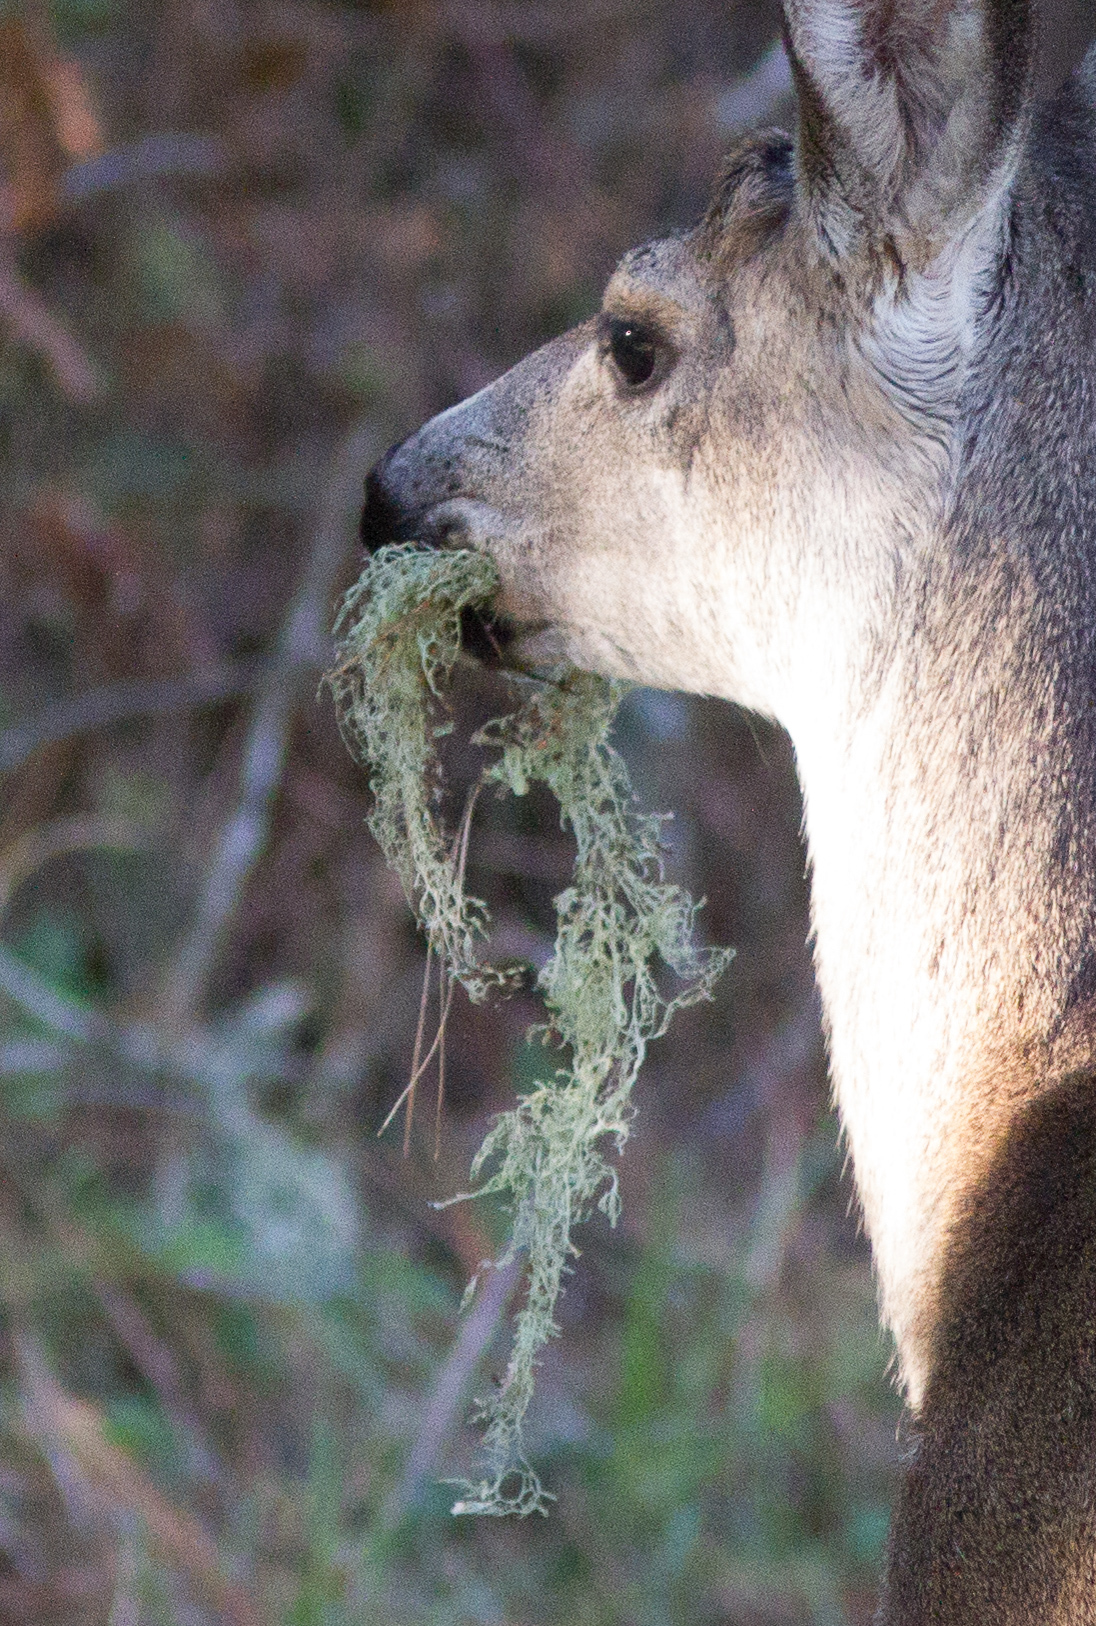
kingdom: Animalia
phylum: Chordata
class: Mammalia
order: Artiodactyla
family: Cervidae
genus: Odocoileus
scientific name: Odocoileus hemionus
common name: Mule deer
